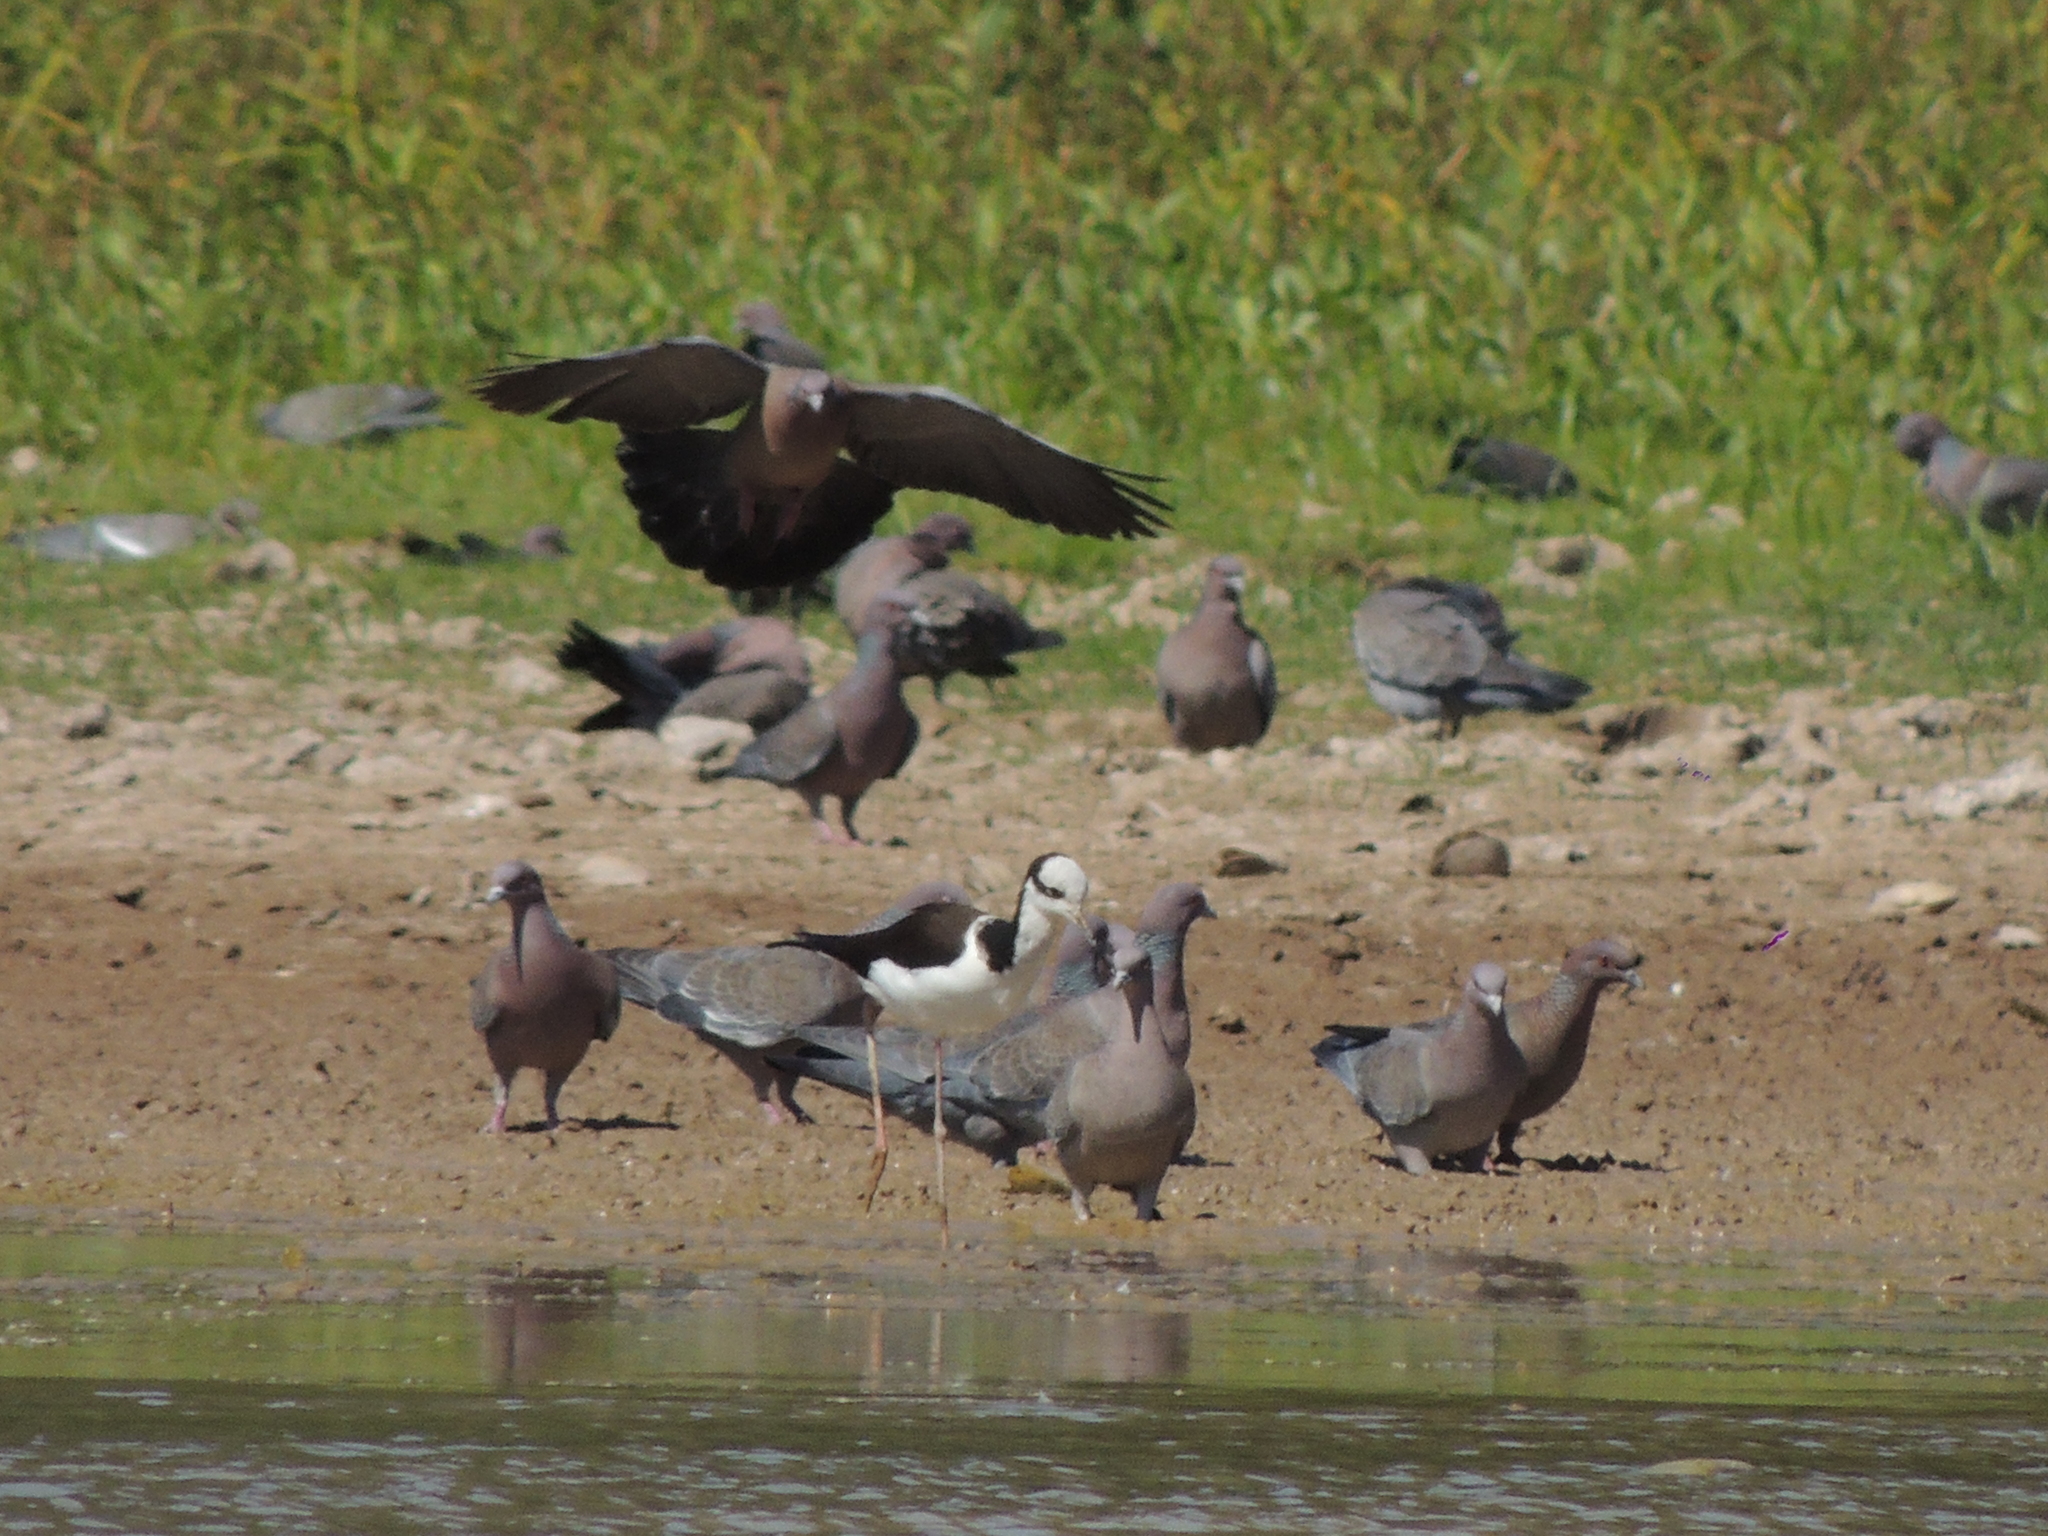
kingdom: Animalia
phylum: Chordata
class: Aves
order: Columbiformes
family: Columbidae
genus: Patagioenas
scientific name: Patagioenas picazuro
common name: Picazuro pigeon
